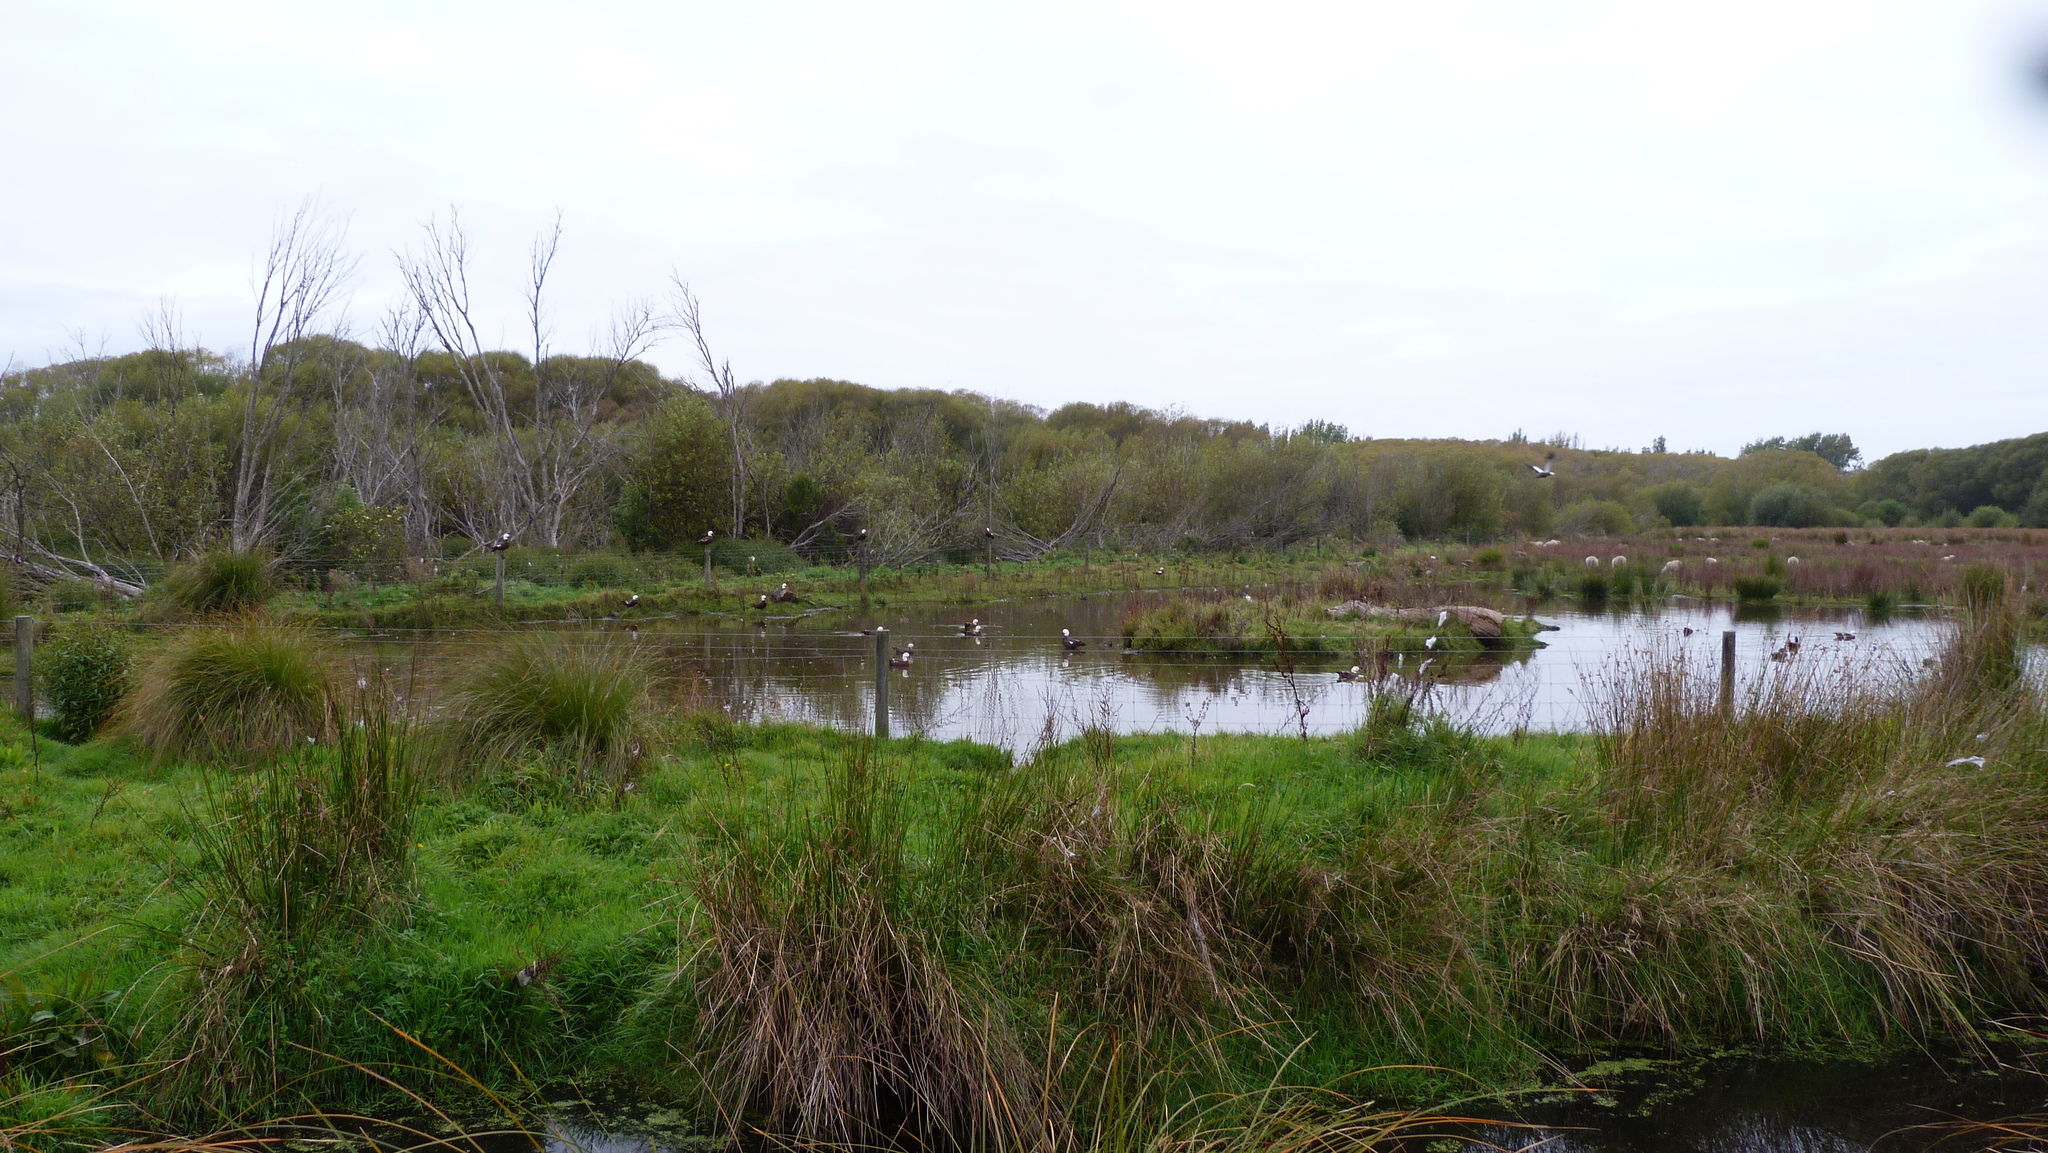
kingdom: Animalia
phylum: Chordata
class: Aves
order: Anseriformes
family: Anatidae
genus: Tadorna
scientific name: Tadorna variegata
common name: Paradise shelduck
